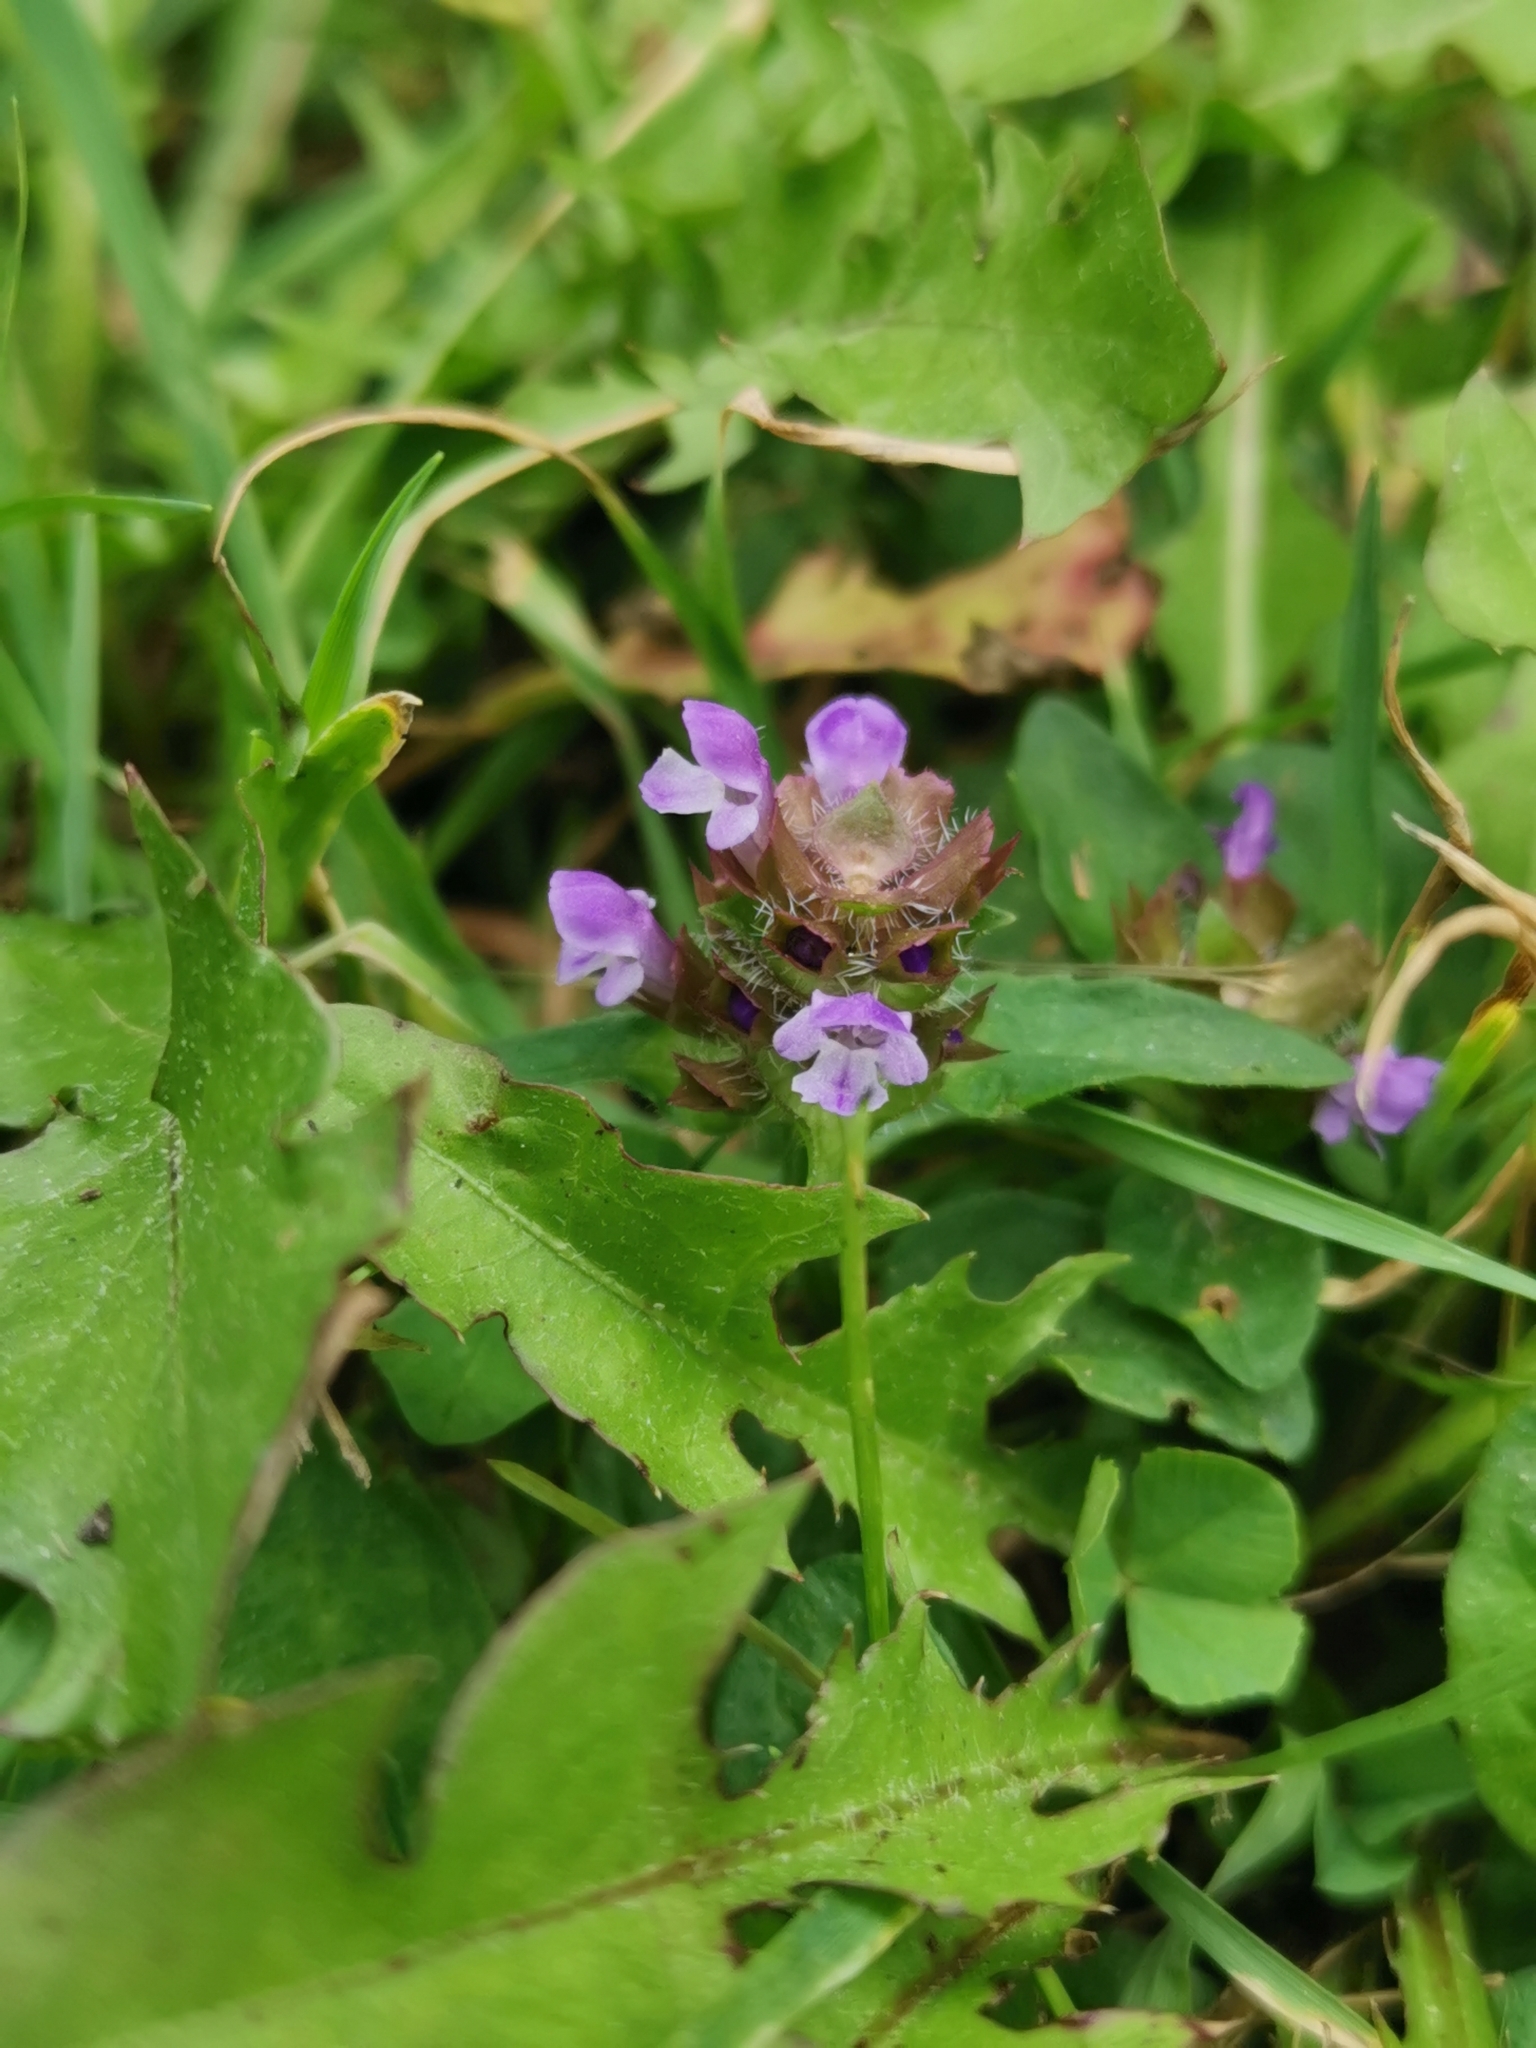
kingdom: Plantae
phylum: Tracheophyta
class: Magnoliopsida
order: Lamiales
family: Lamiaceae
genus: Prunella
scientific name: Prunella vulgaris
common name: Heal-all
